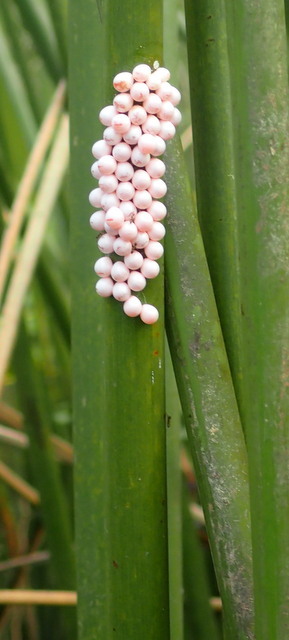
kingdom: Animalia
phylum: Mollusca
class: Gastropoda
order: Architaenioglossa
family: Ampullariidae
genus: Pomacea
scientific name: Pomacea paludosa
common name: Florida applesnail
